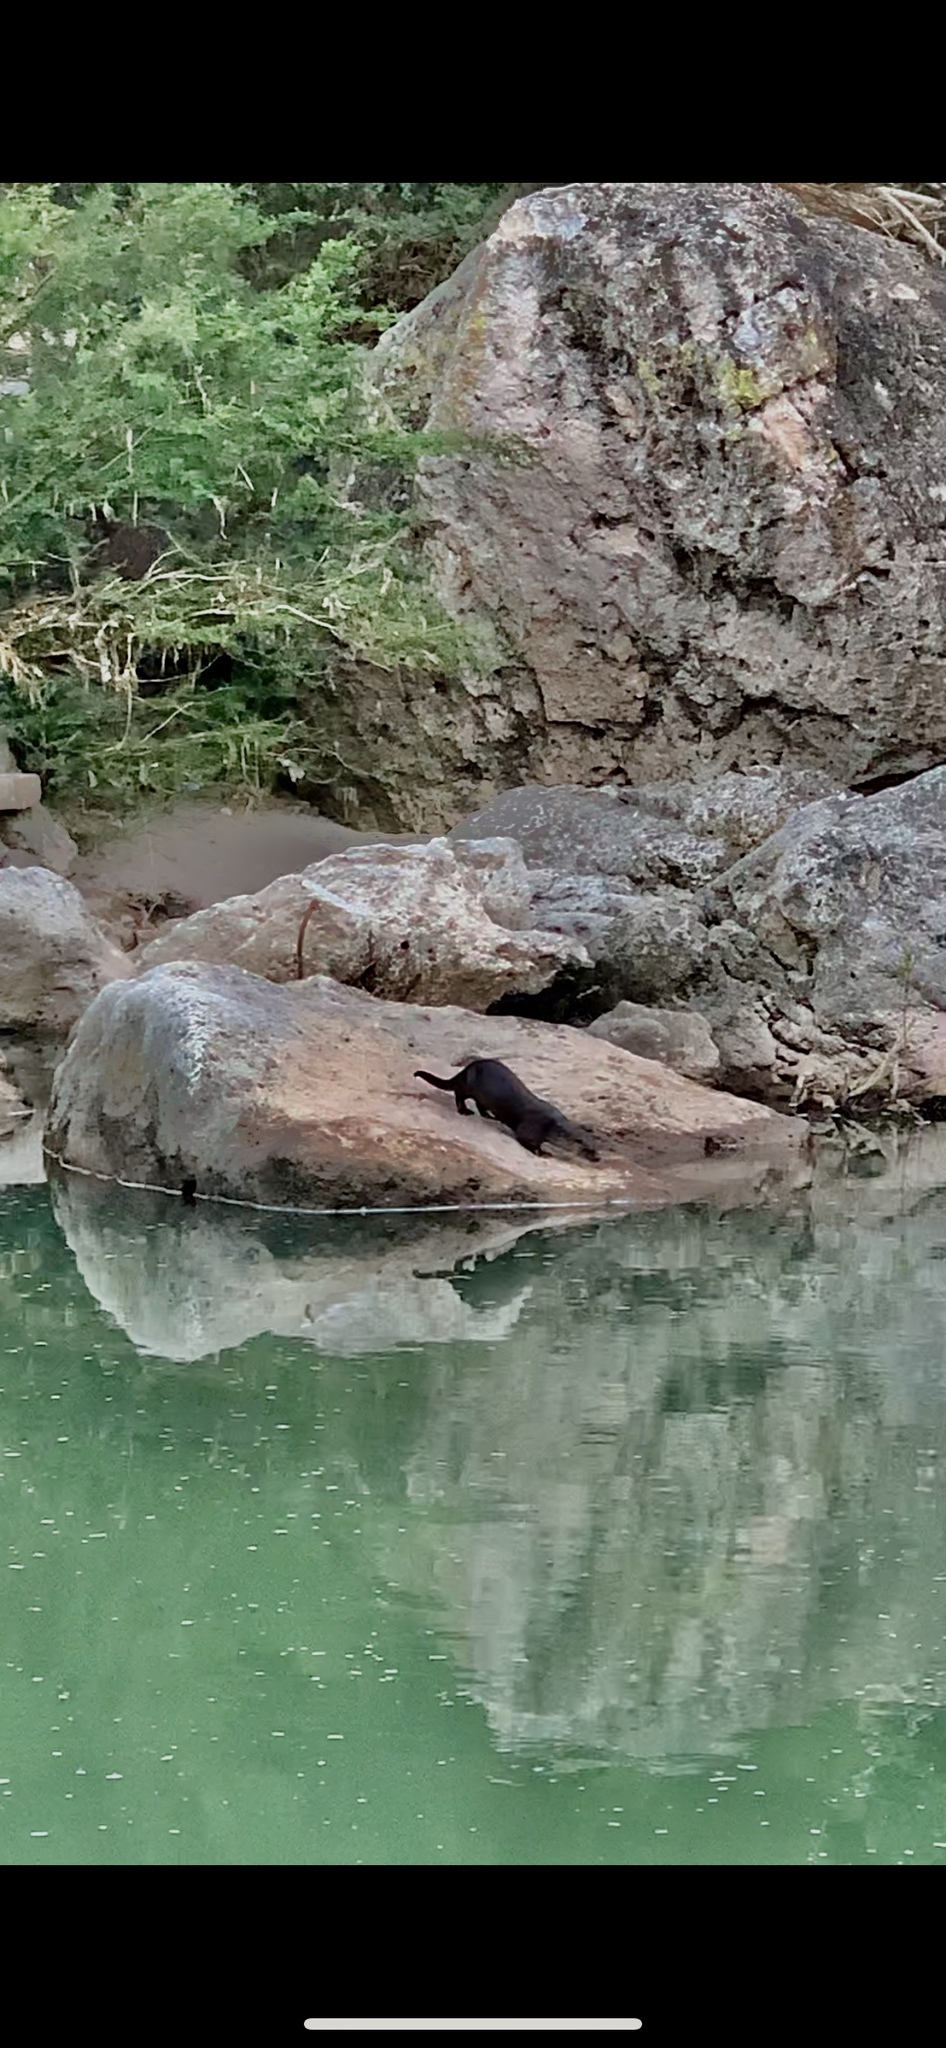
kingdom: Animalia
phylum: Chordata
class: Mammalia
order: Carnivora
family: Mustelidae
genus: Lontra
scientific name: Lontra longicaudis
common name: Neotropical otter
